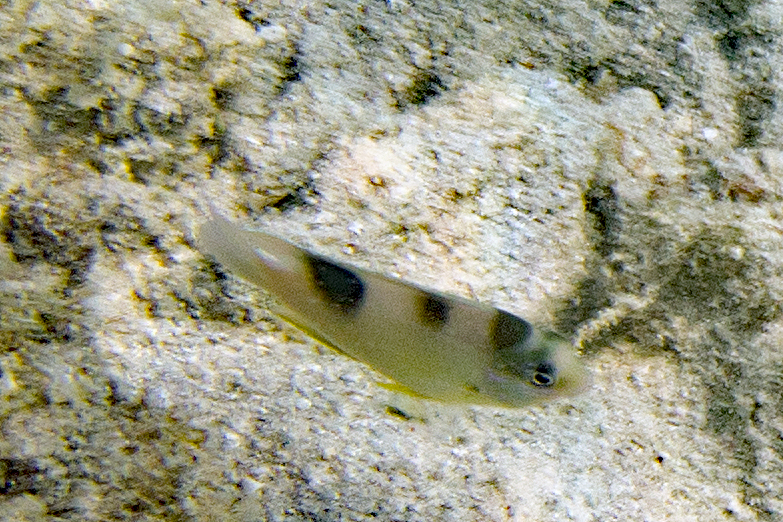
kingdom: Animalia
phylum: Chordata
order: Perciformes
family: Pomacentridae
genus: Dischistodus
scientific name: Dischistodus perspicillatus
